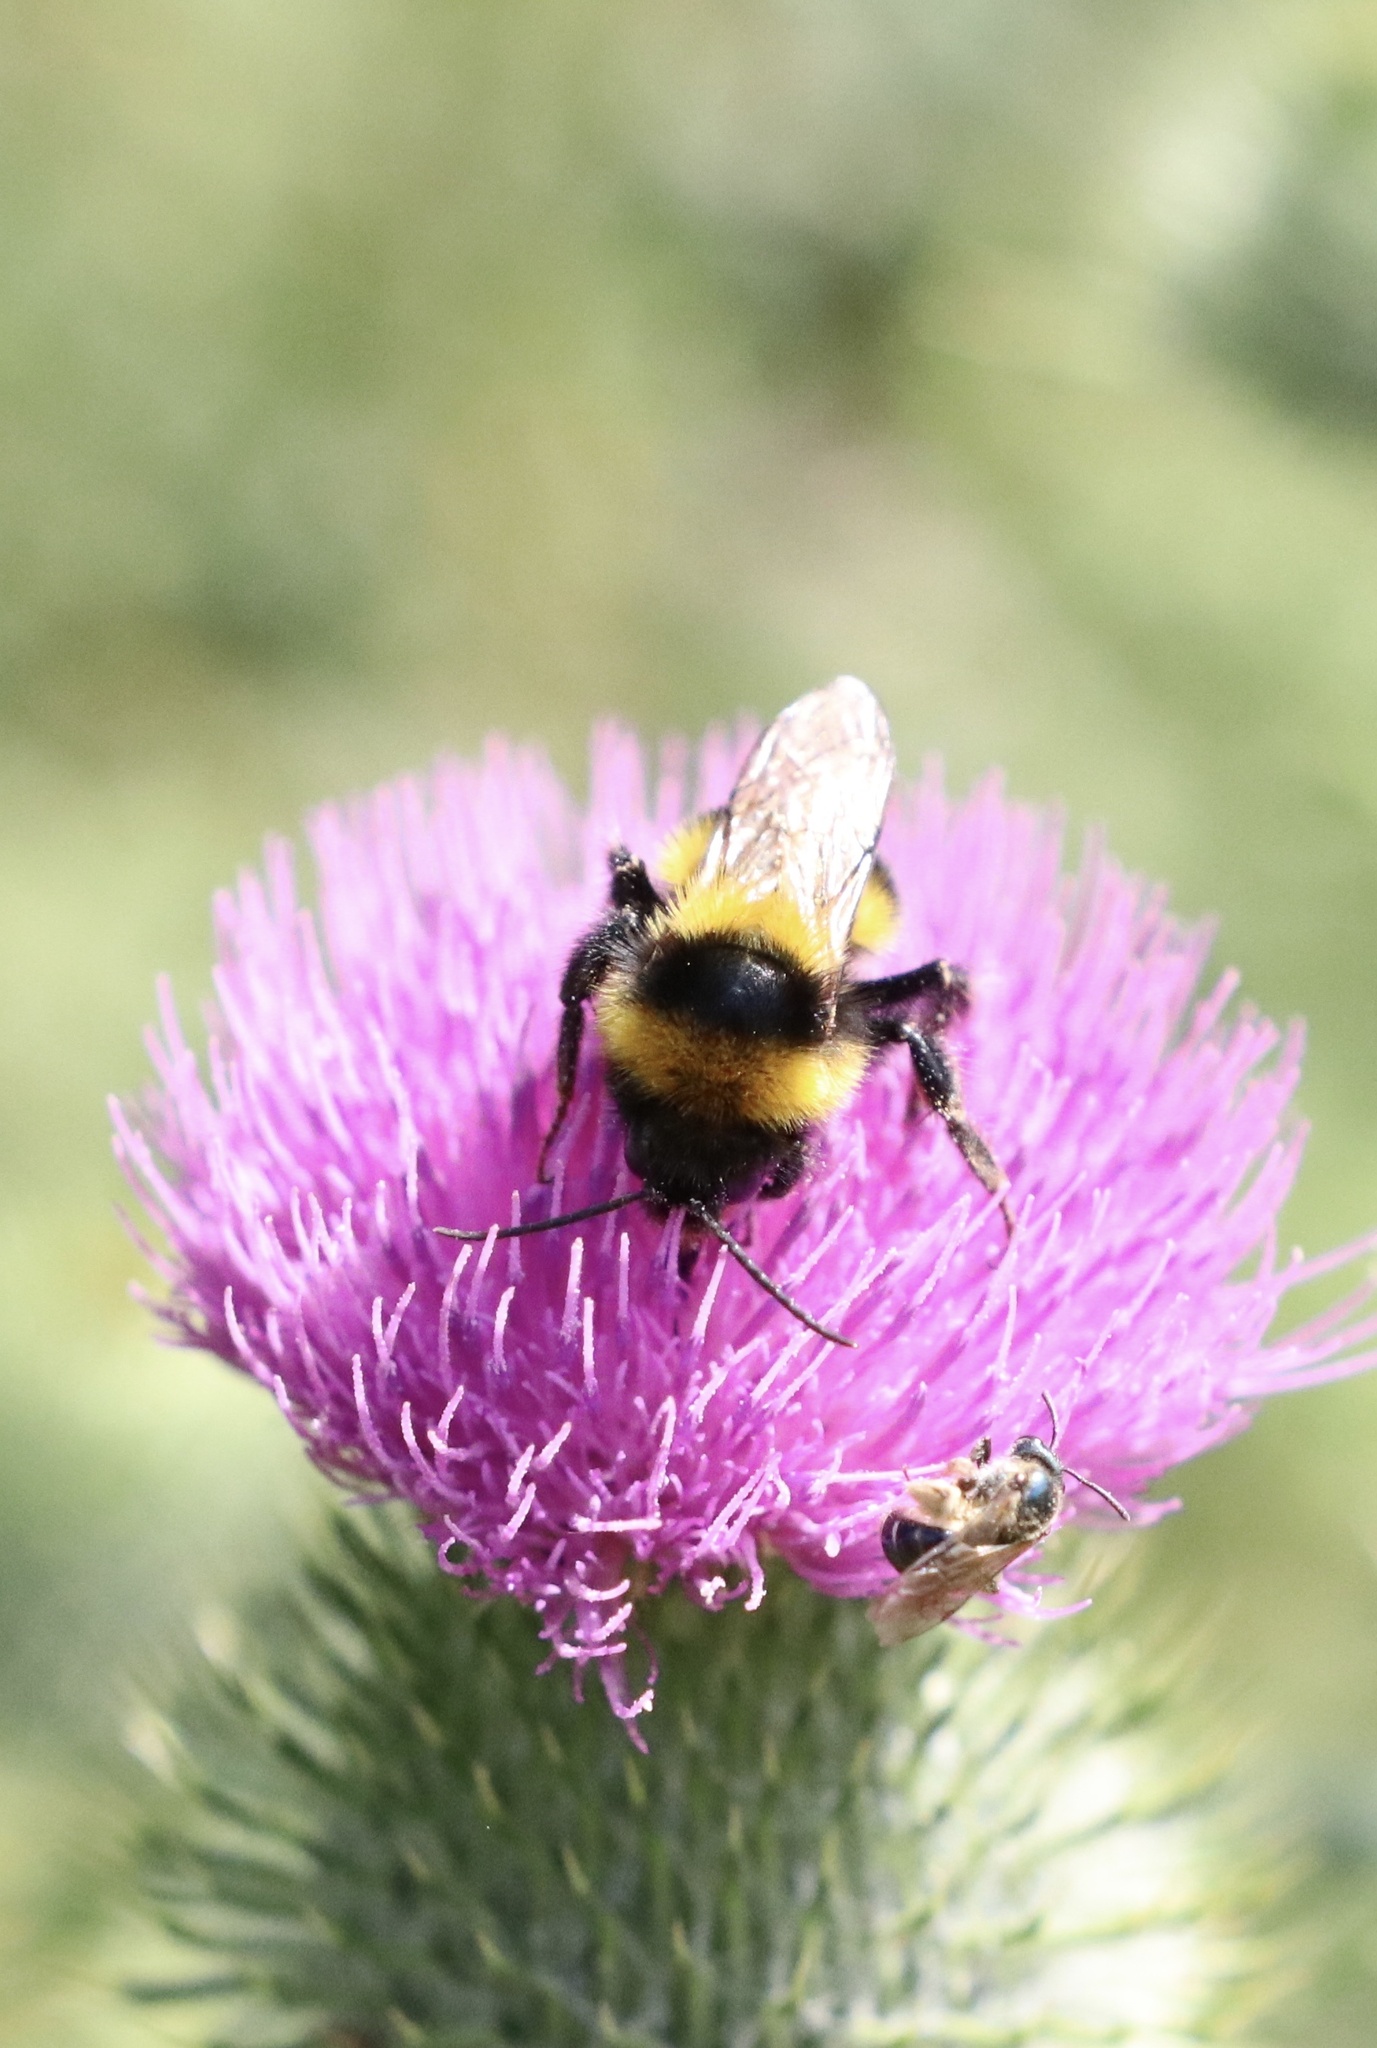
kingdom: Animalia
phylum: Arthropoda
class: Insecta
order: Hymenoptera
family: Apidae
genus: Bombus
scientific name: Bombus ruderatus
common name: Large garden bumblebee
